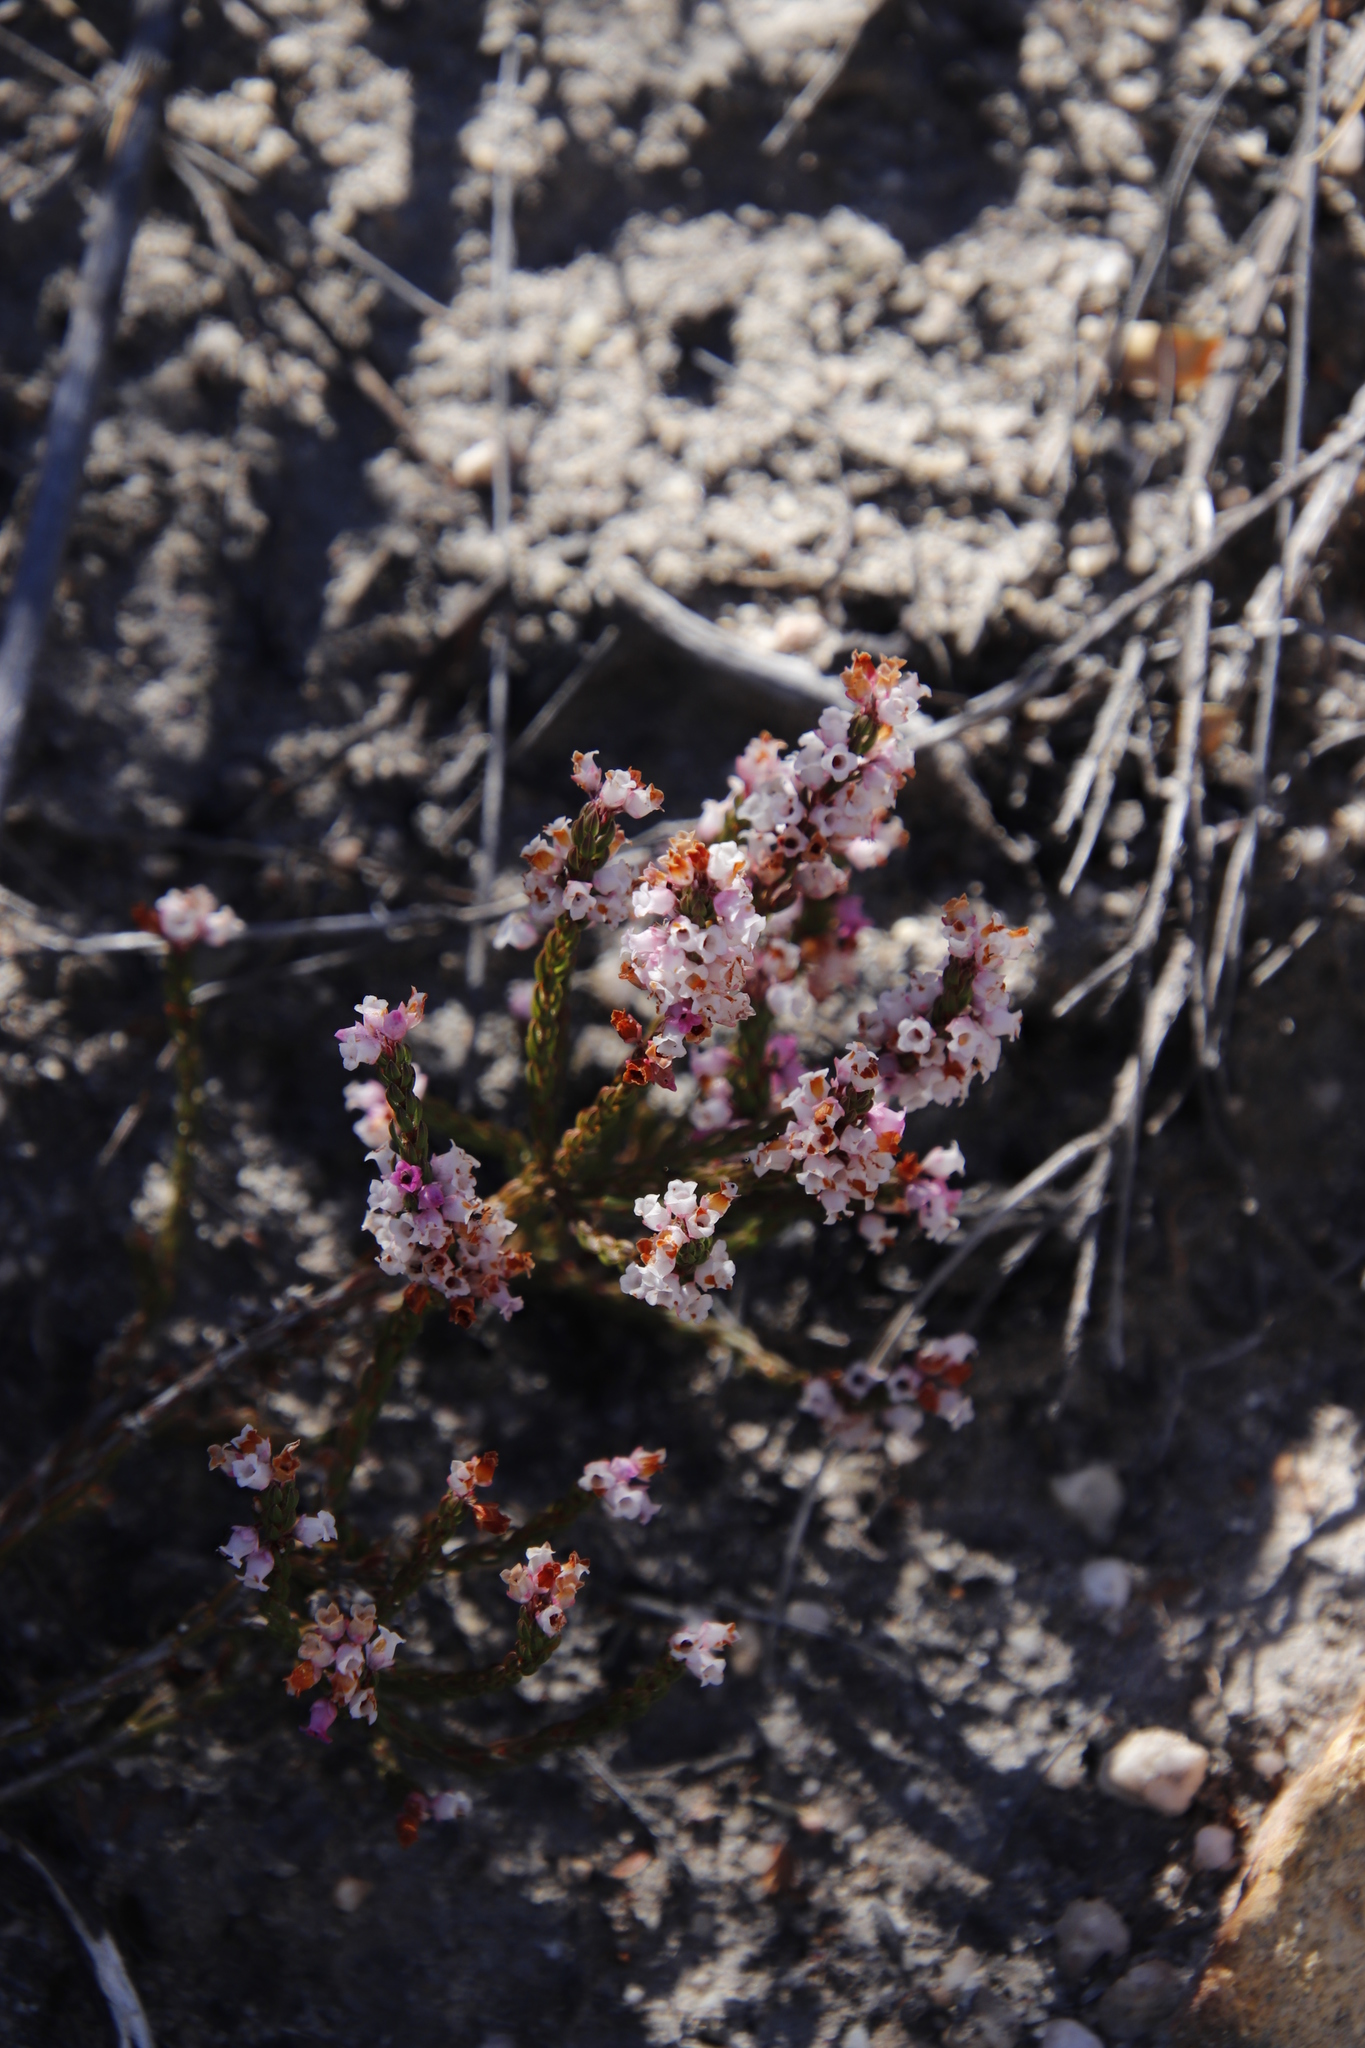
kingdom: Plantae
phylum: Tracheophyta
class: Magnoliopsida
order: Ericales
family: Ericaceae
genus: Erica
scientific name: Erica verecunda
